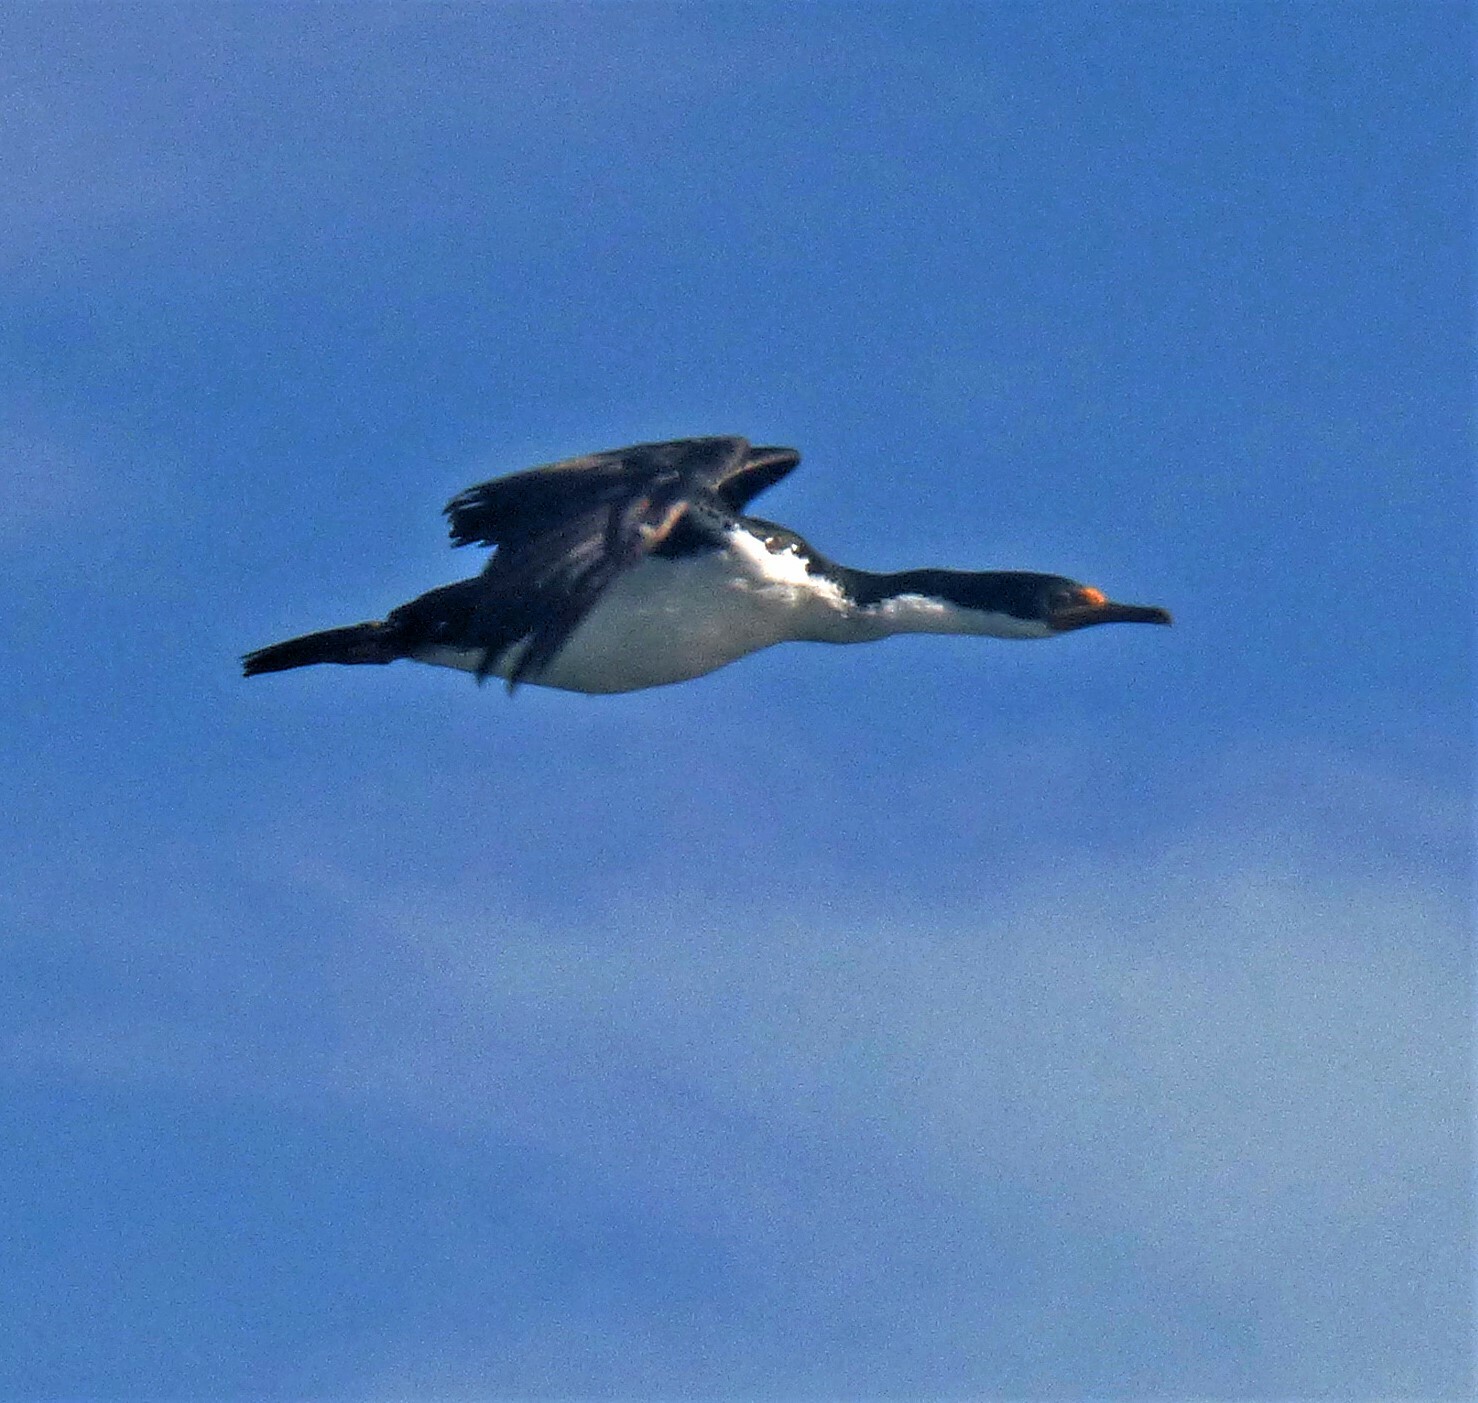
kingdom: Animalia
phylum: Chordata
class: Aves
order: Suliformes
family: Phalacrocoracidae
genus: Leucocarbo
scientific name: Leucocarbo atriceps
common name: Imperial shag
